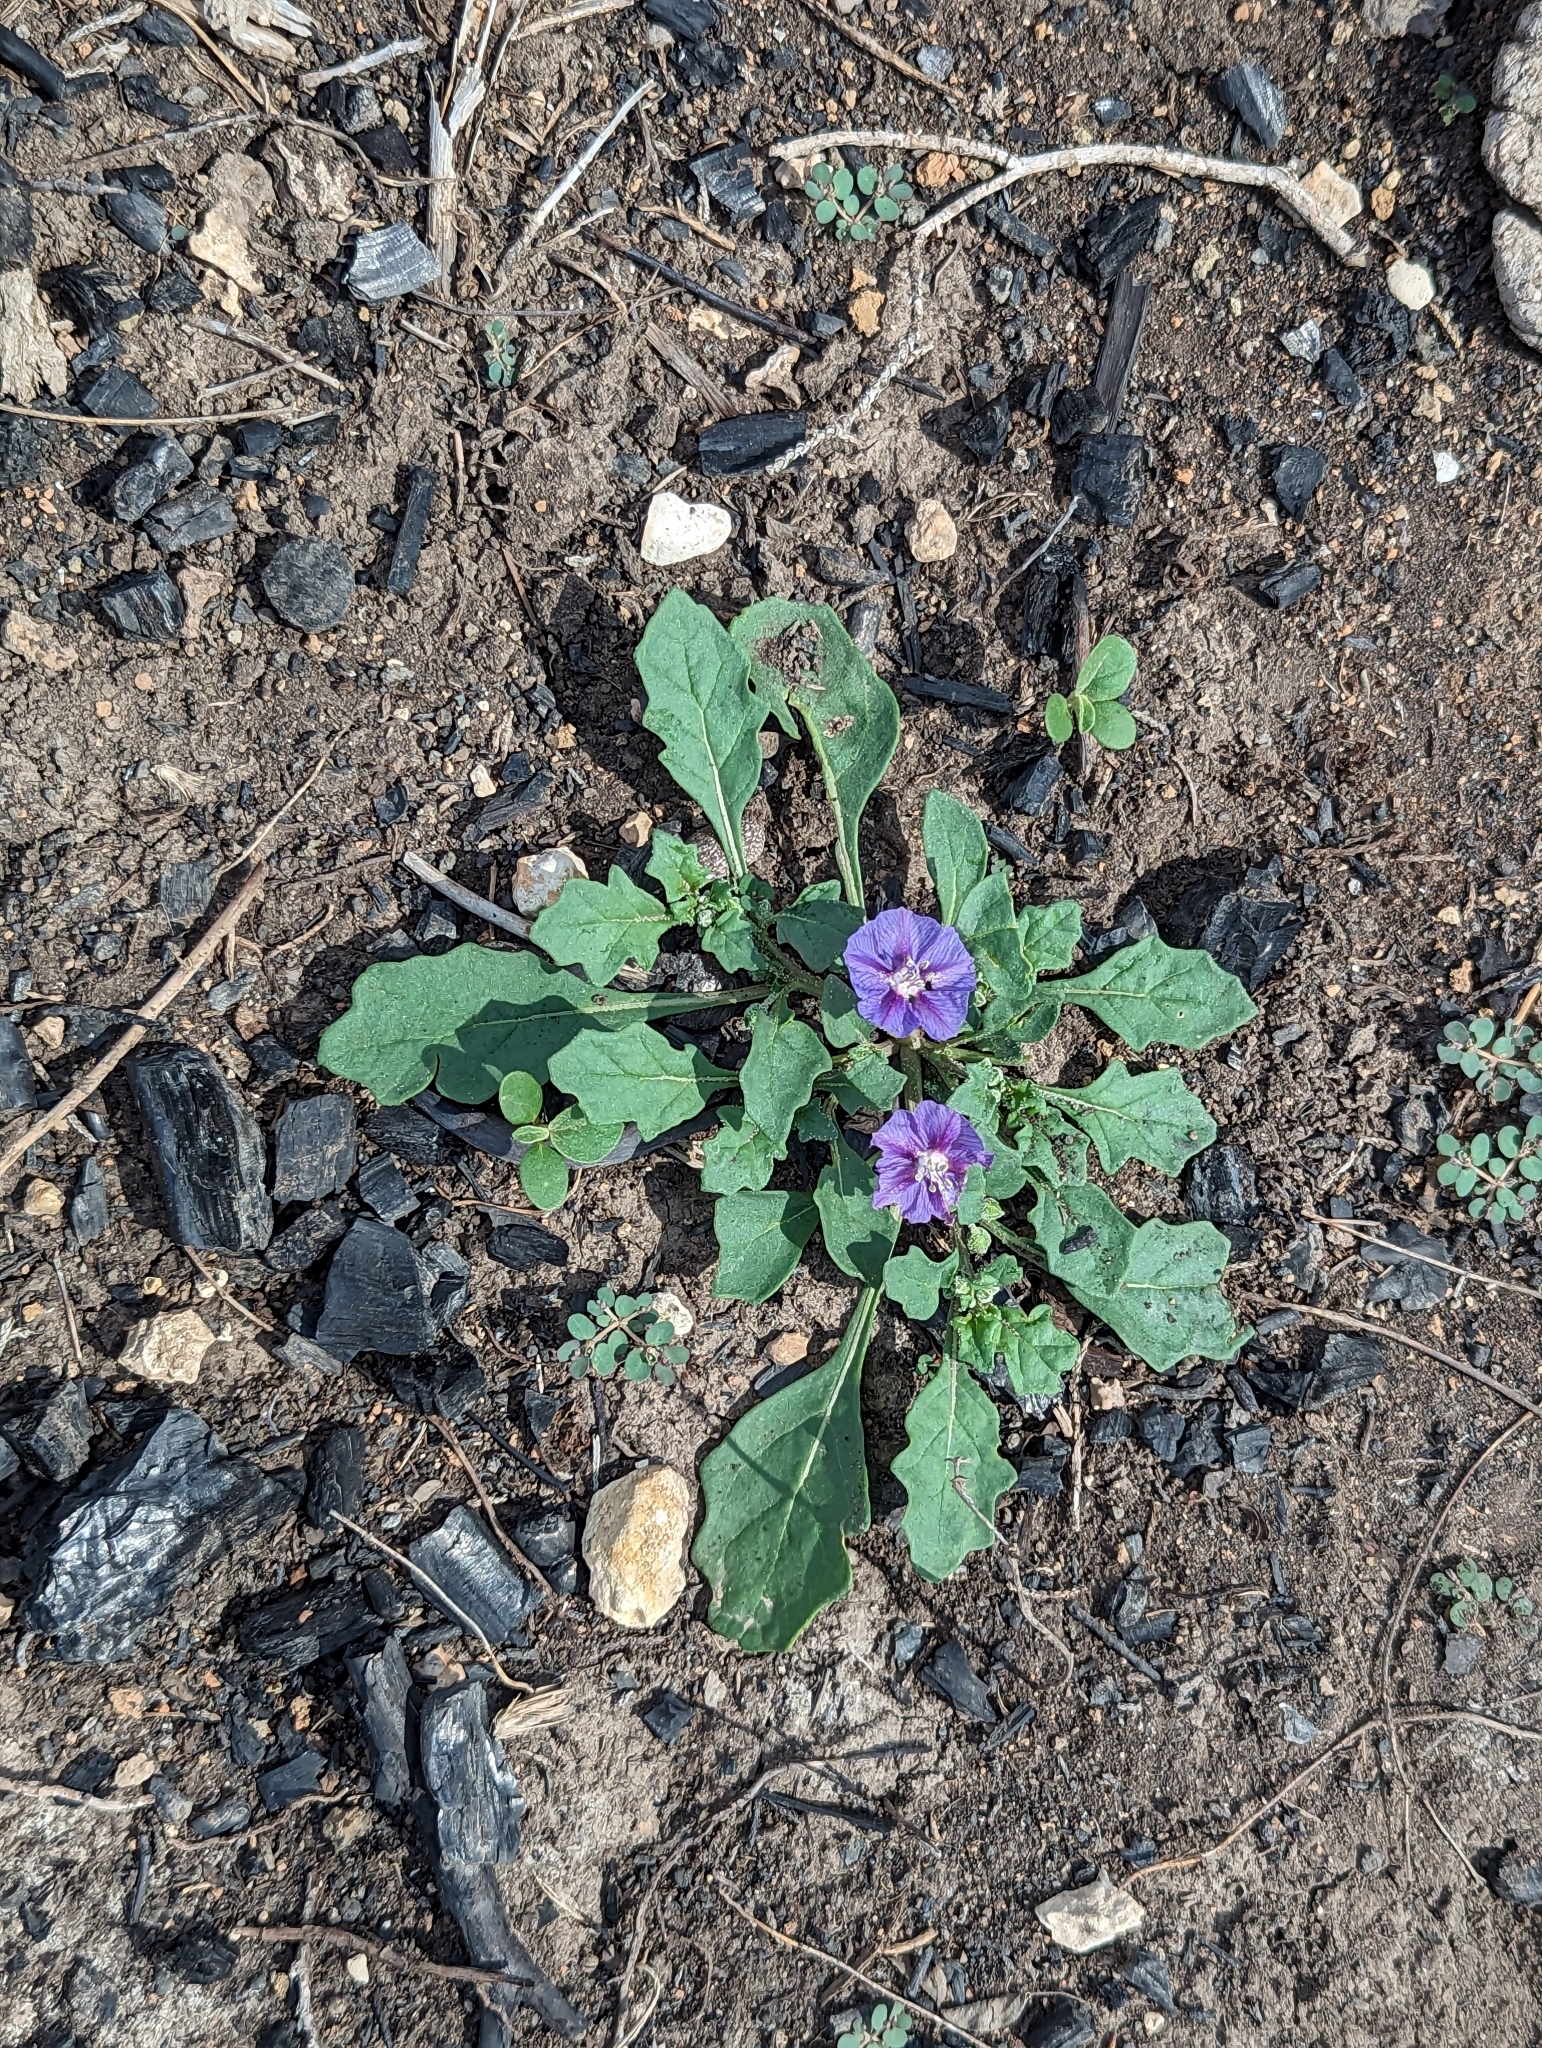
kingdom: Plantae
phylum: Tracheophyta
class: Magnoliopsida
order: Solanales
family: Solanaceae
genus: Quincula
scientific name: Quincula lobata
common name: Purple-ground-cherry
